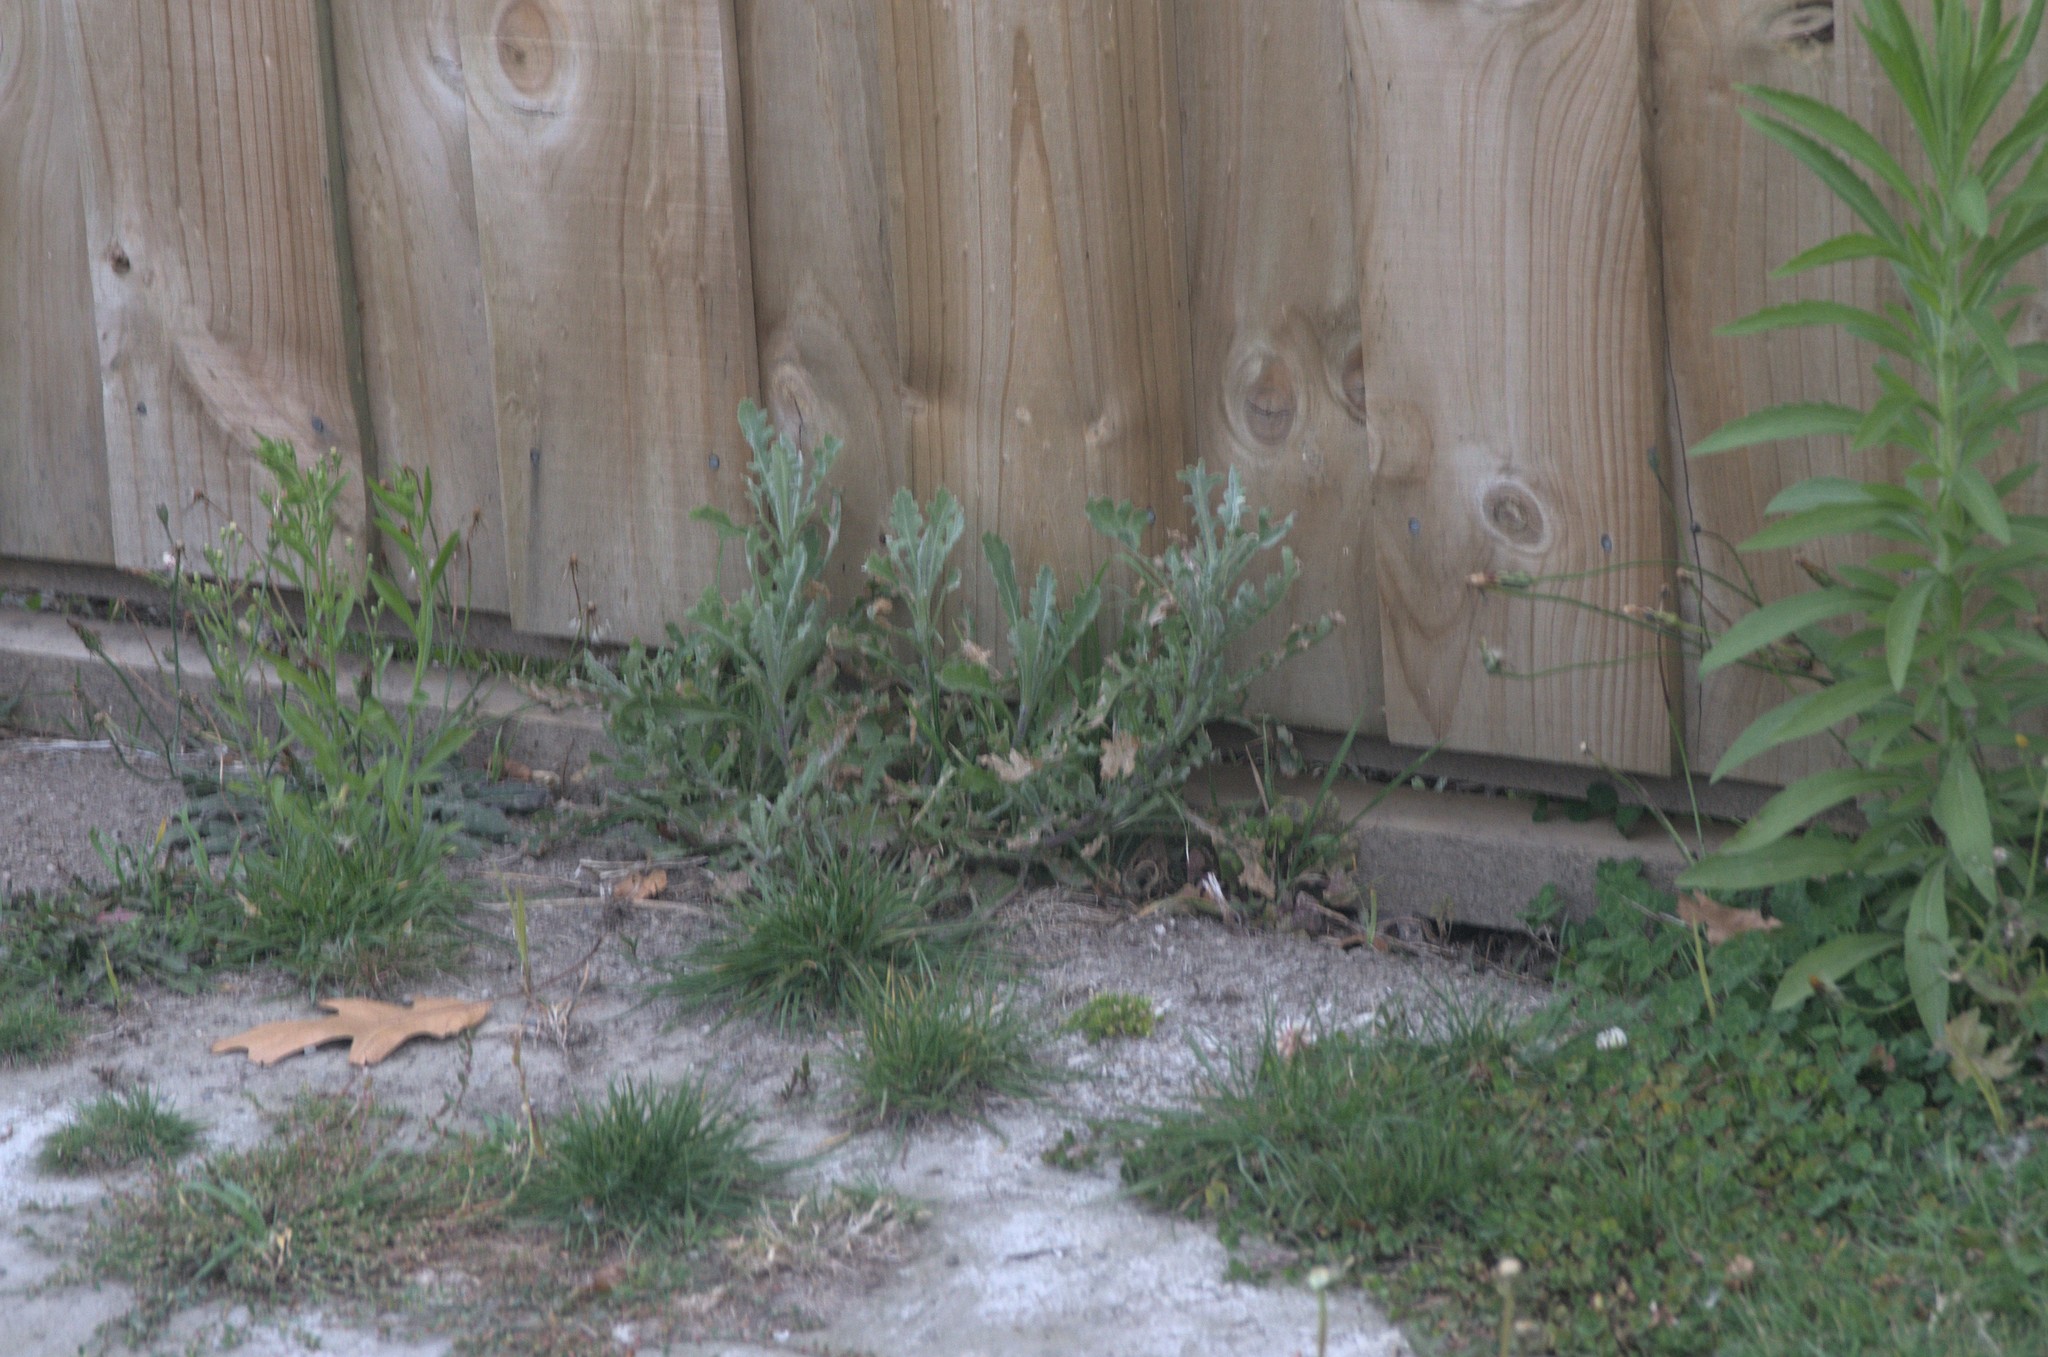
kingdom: Plantae
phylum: Tracheophyta
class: Magnoliopsida
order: Asterales
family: Asteraceae
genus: Senecio
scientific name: Senecio glomeratus
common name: Cutleaf burnweed
